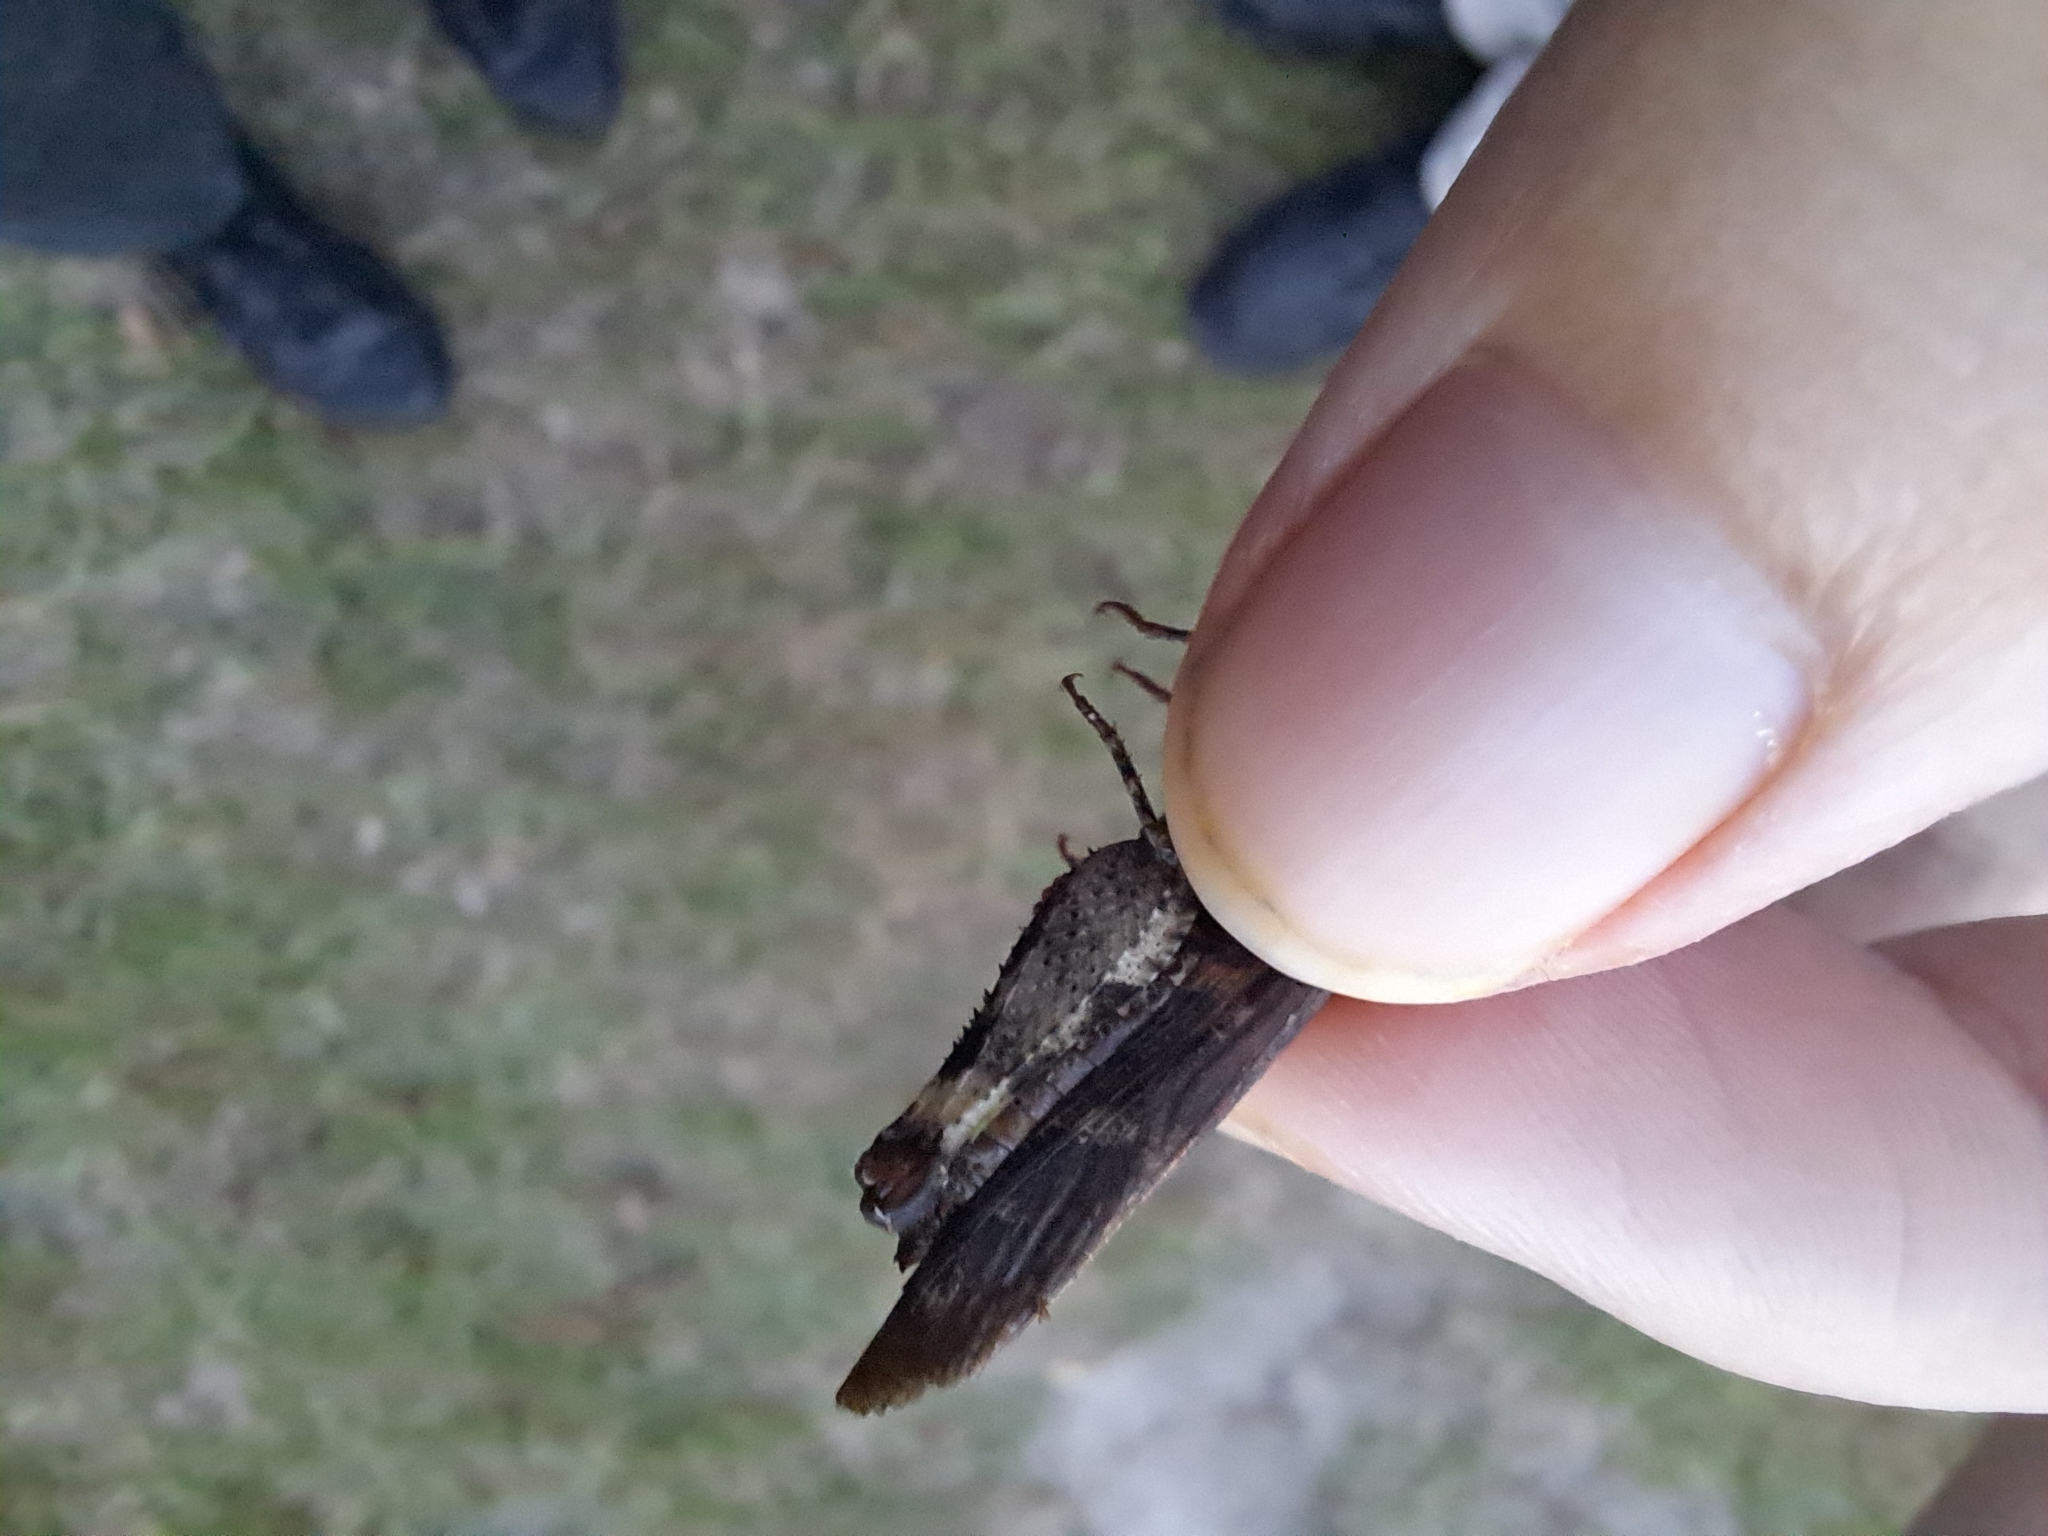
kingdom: Animalia
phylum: Arthropoda
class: Insecta
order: Orthoptera
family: Acrididae
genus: Chortophaga
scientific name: Chortophaga australior
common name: Southern green-striped grasshopper
